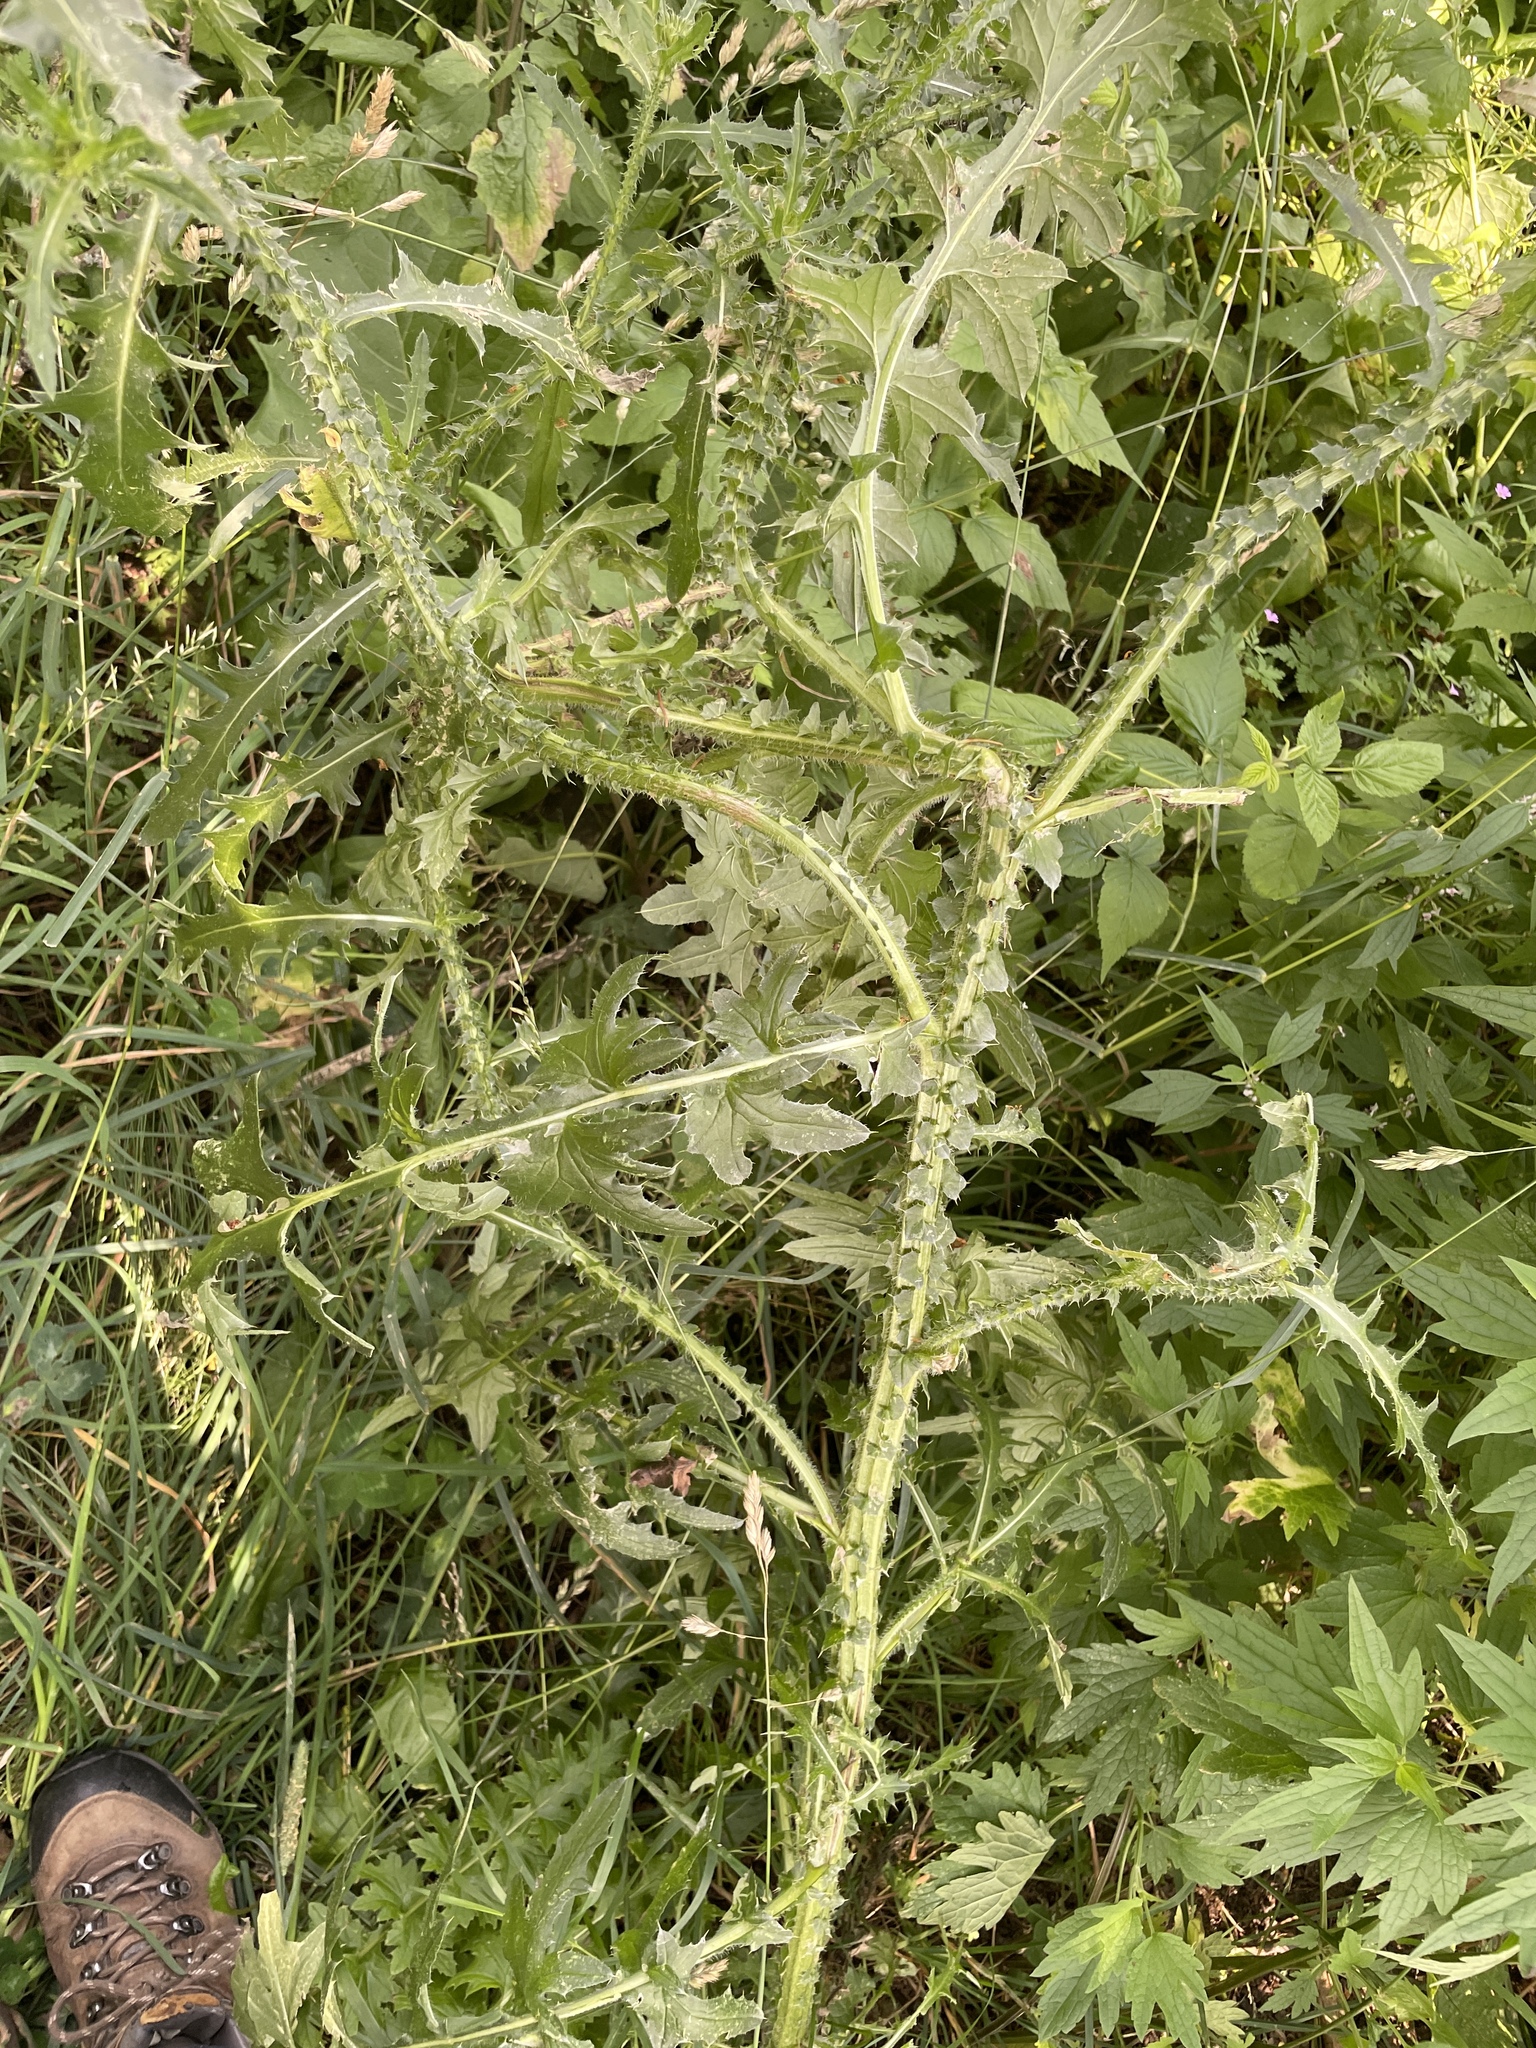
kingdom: Plantae
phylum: Tracheophyta
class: Magnoliopsida
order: Asterales
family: Asteraceae
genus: Carduus
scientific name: Carduus acanthoides
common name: Plumeless thistle
